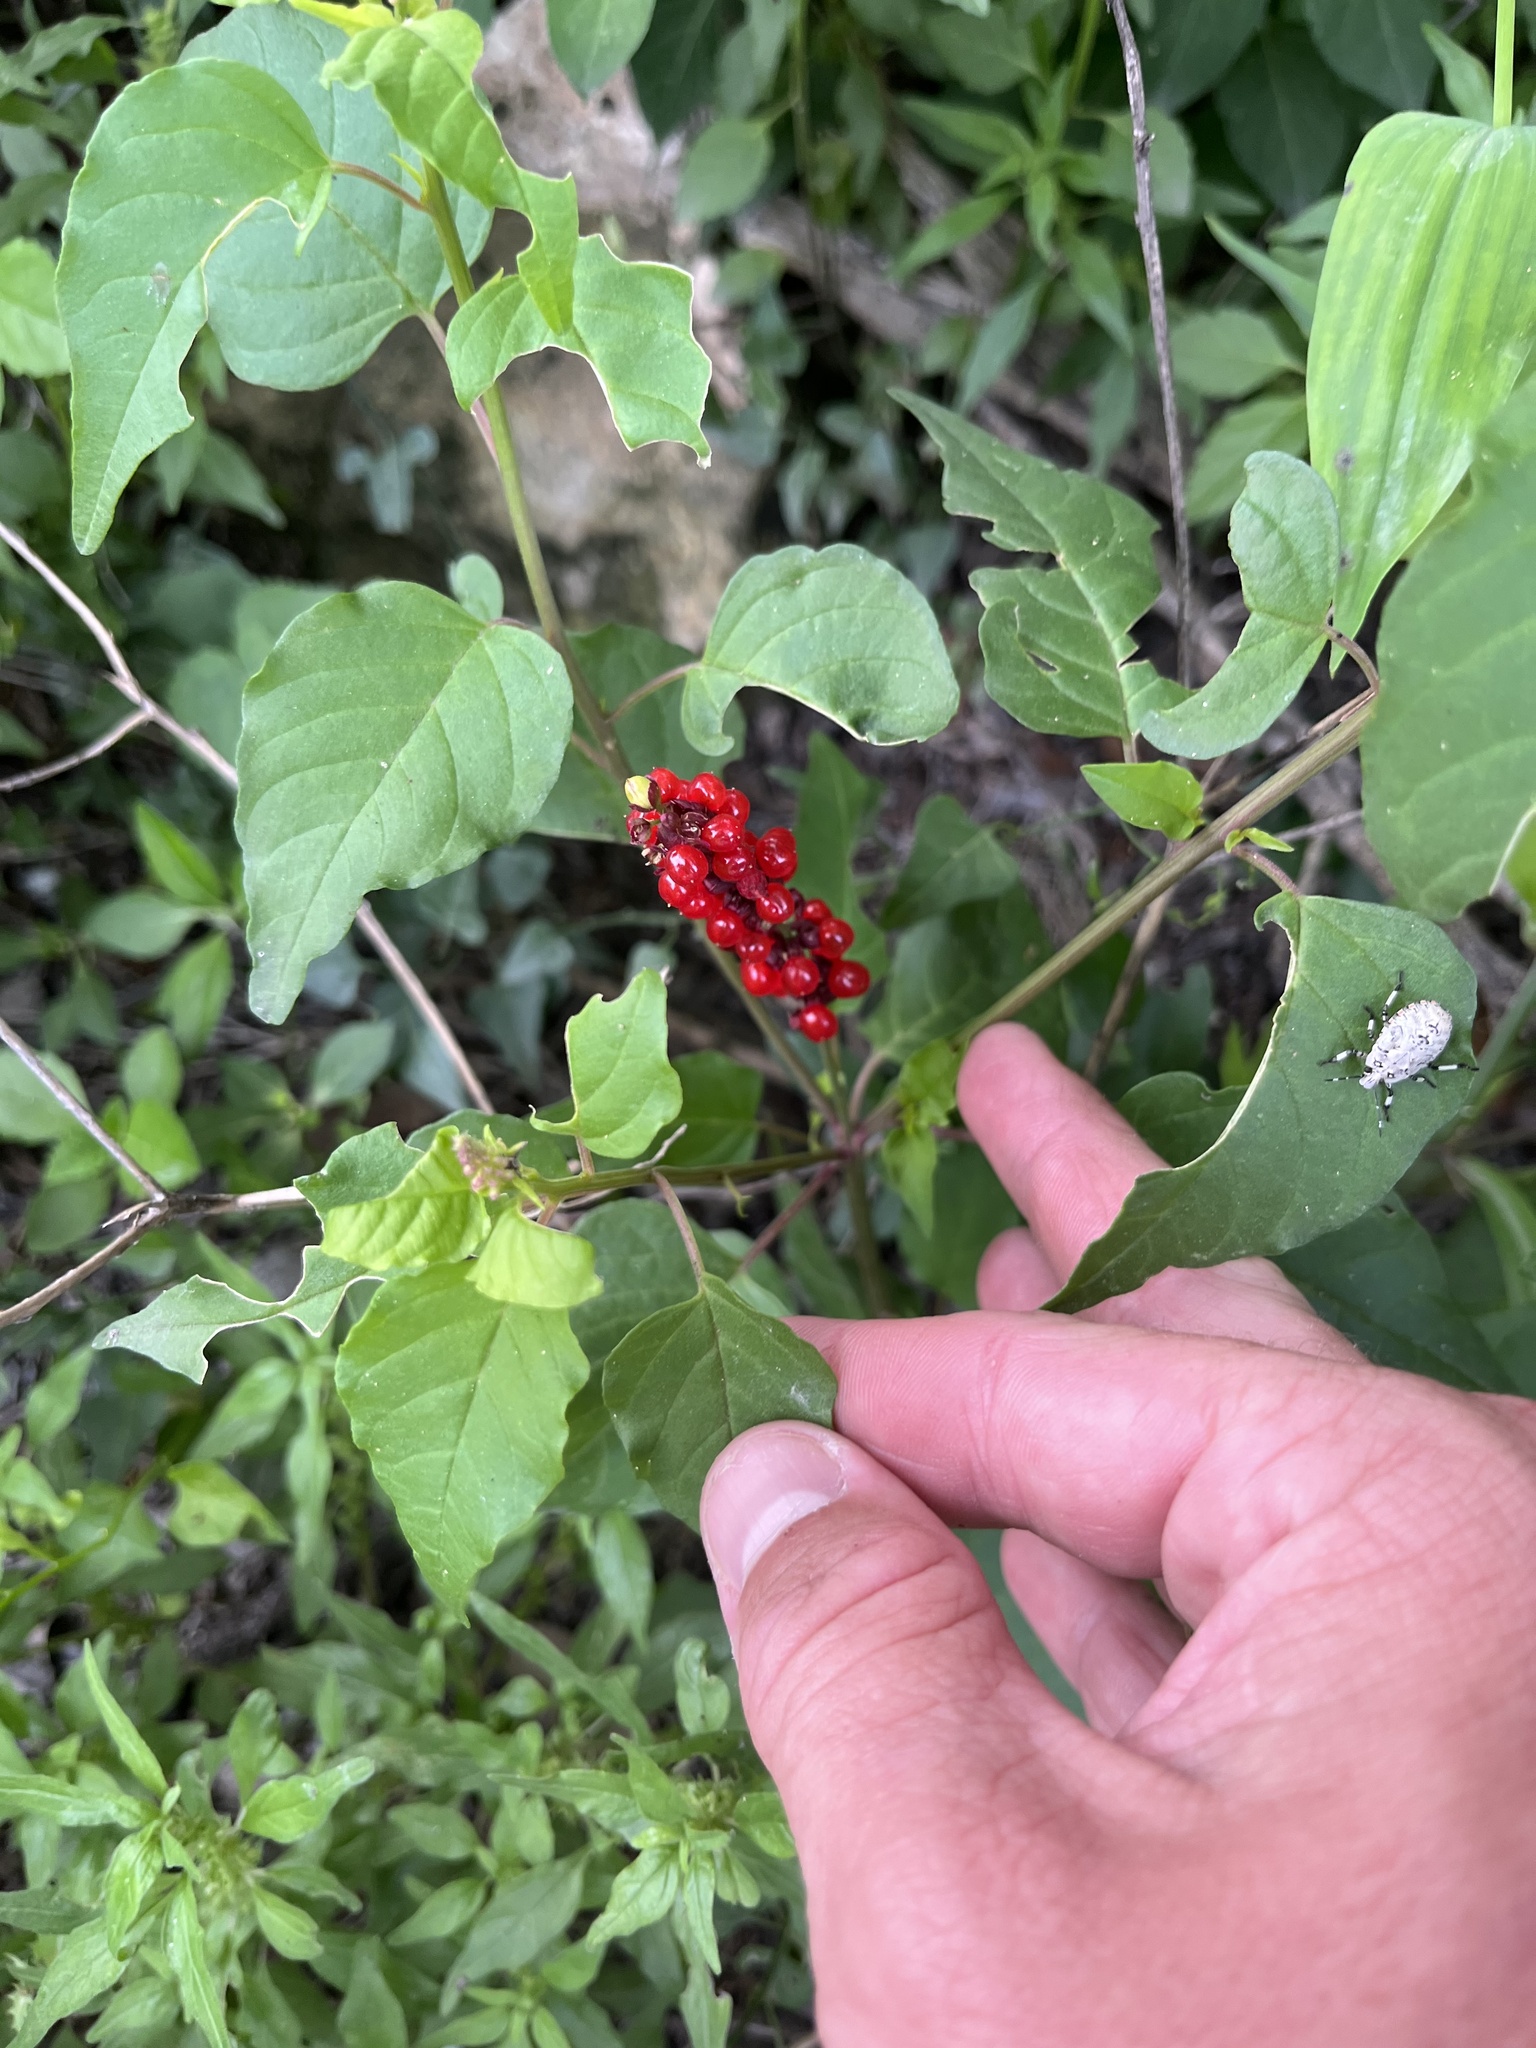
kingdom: Plantae
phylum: Tracheophyta
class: Magnoliopsida
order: Caryophyllales
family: Phytolaccaceae
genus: Rivina
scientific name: Rivina humilis
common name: Rougeplant
